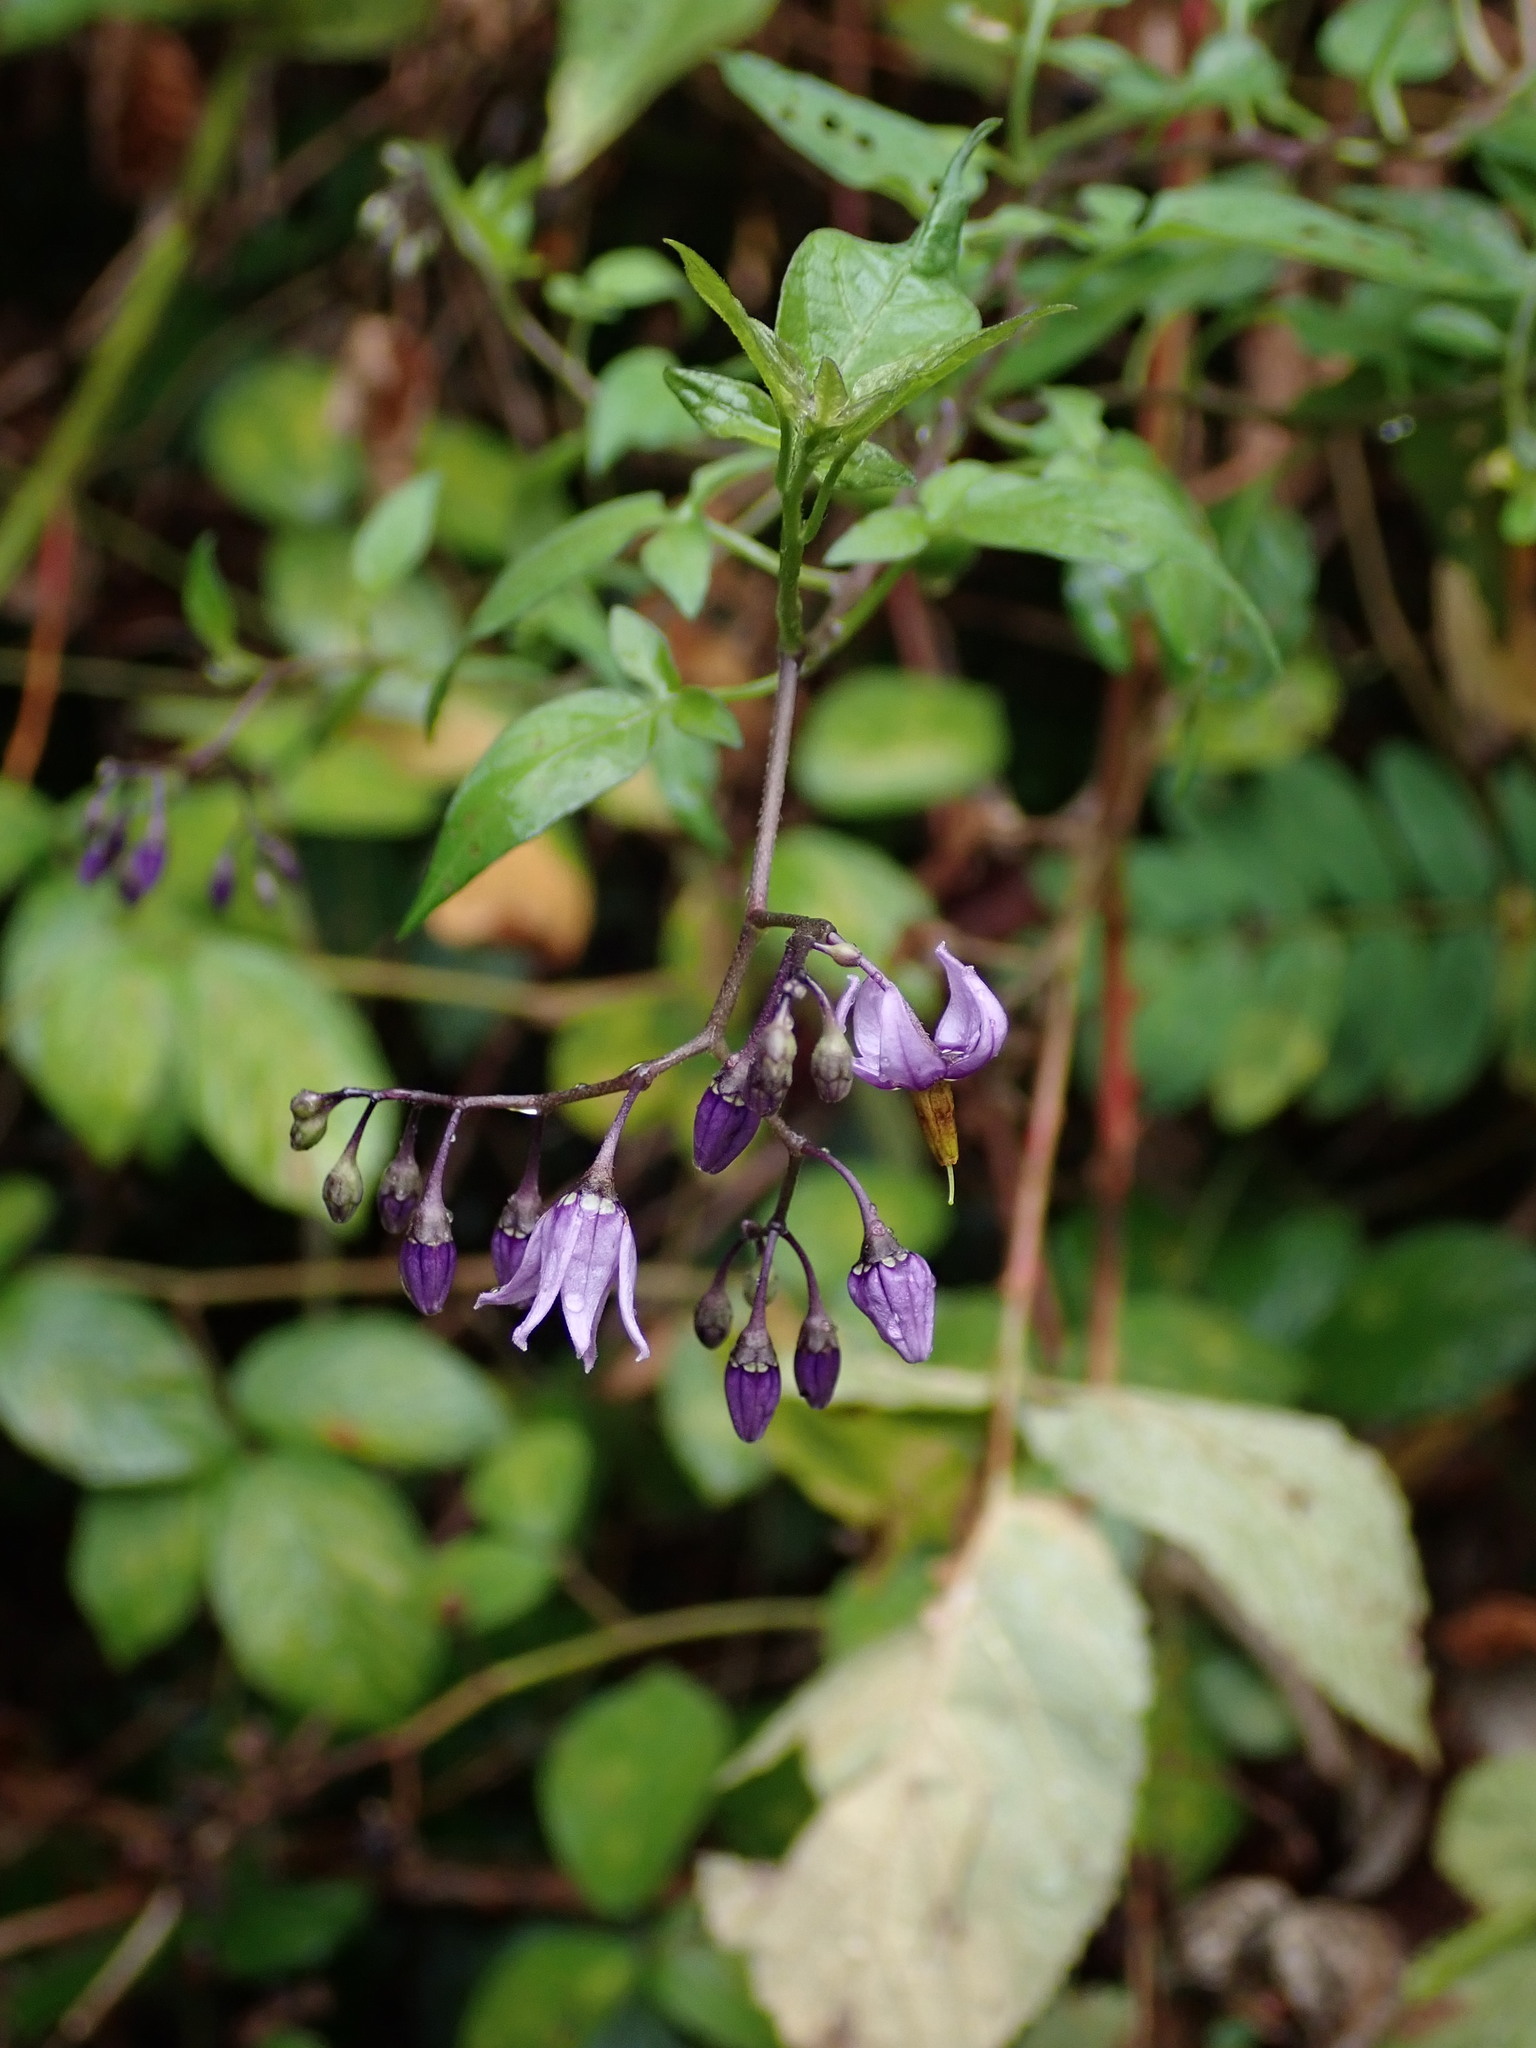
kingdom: Plantae
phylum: Tracheophyta
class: Magnoliopsida
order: Solanales
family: Solanaceae
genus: Solanum
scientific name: Solanum dulcamara
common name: Climbing nightshade
